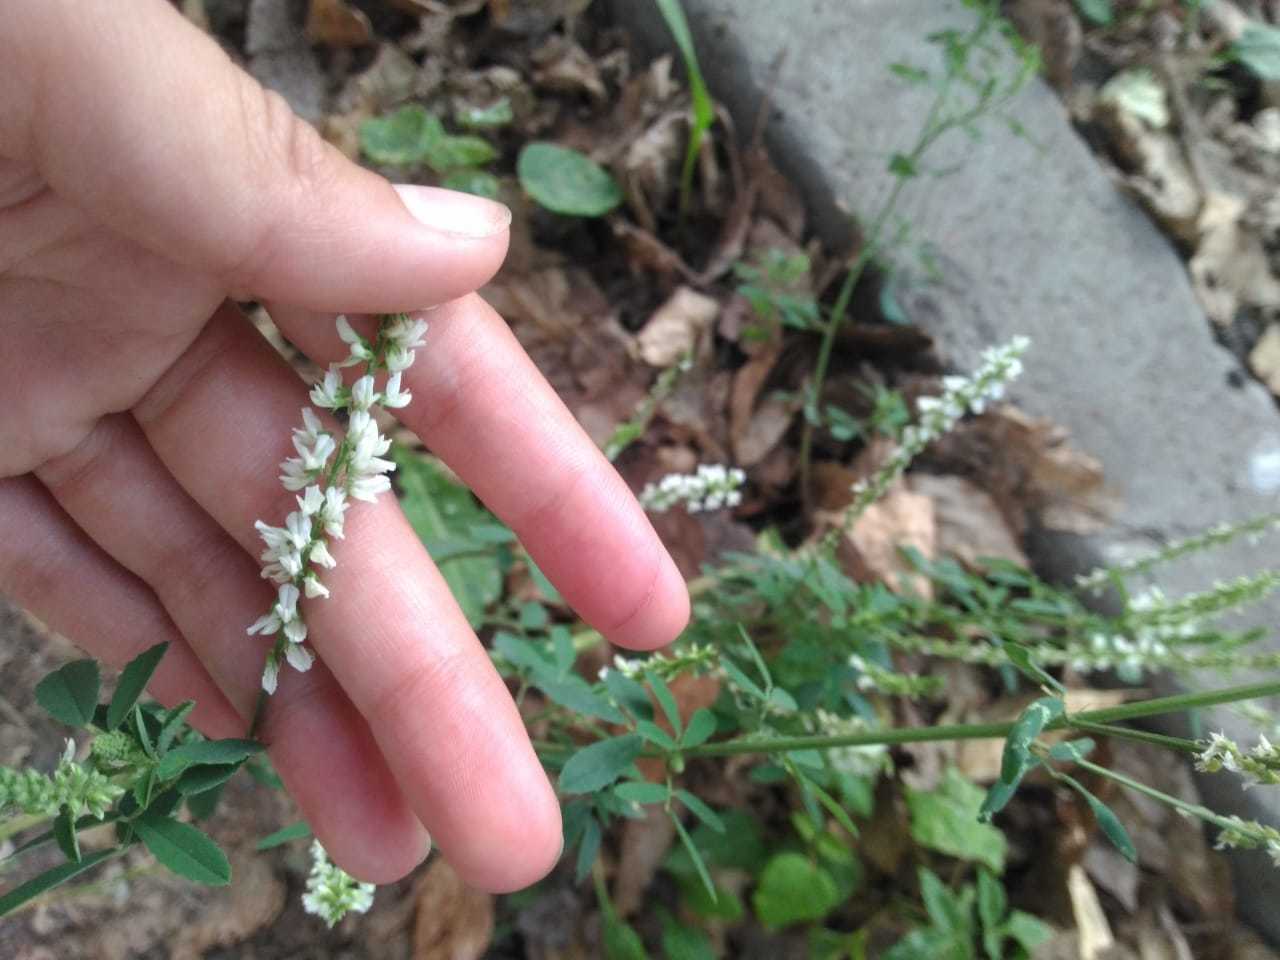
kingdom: Plantae
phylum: Tracheophyta
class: Magnoliopsida
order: Fabales
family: Fabaceae
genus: Melilotus
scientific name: Melilotus albus
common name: White melilot
